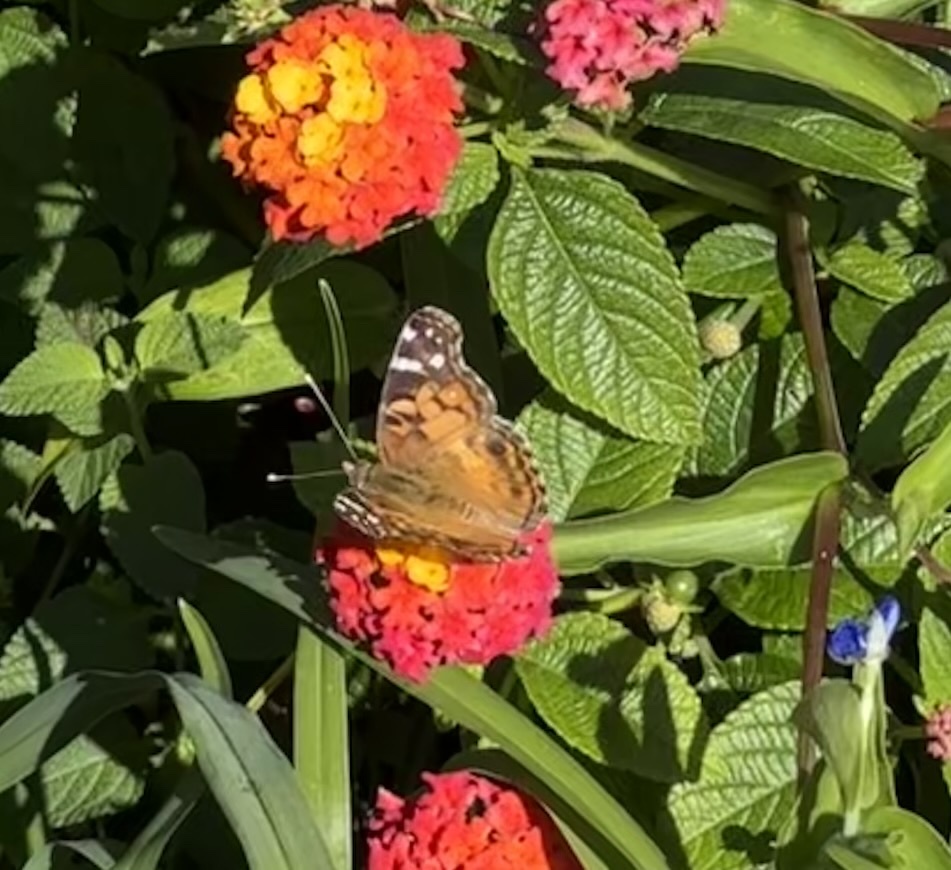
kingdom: Animalia
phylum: Arthropoda
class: Insecta
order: Lepidoptera
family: Nymphalidae
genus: Vanessa
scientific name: Vanessa virginiensis
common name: American lady
